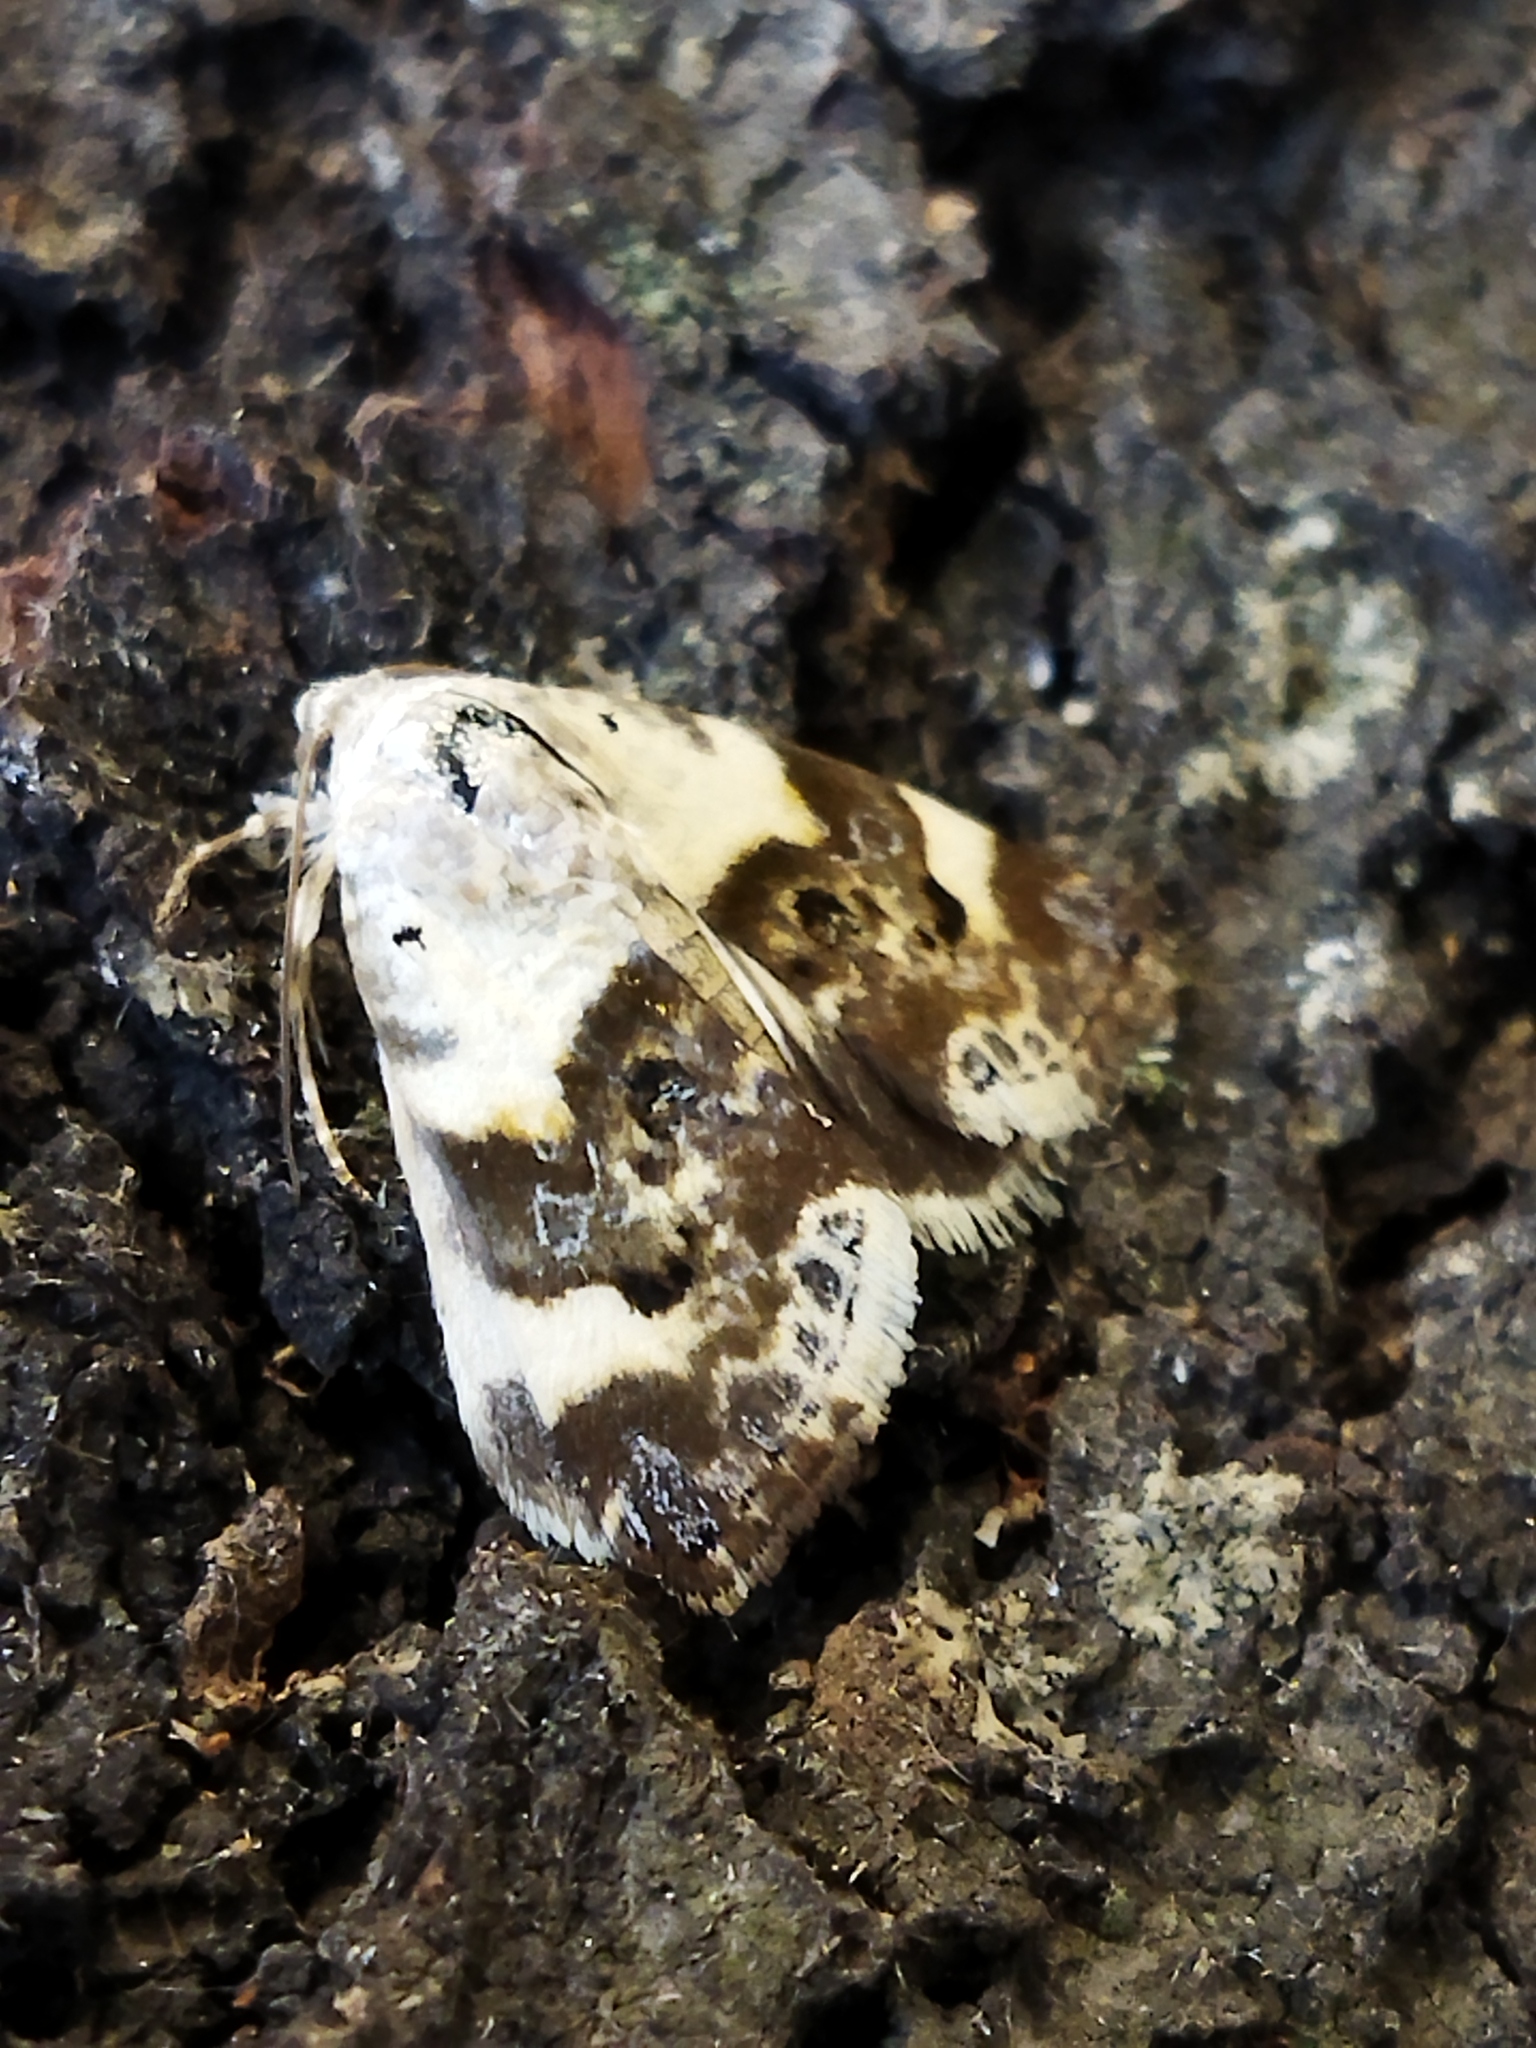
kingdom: Animalia
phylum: Arthropoda
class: Insecta
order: Lepidoptera
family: Noctuidae
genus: Acontia
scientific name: Acontia lucida
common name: Pale shoulder
